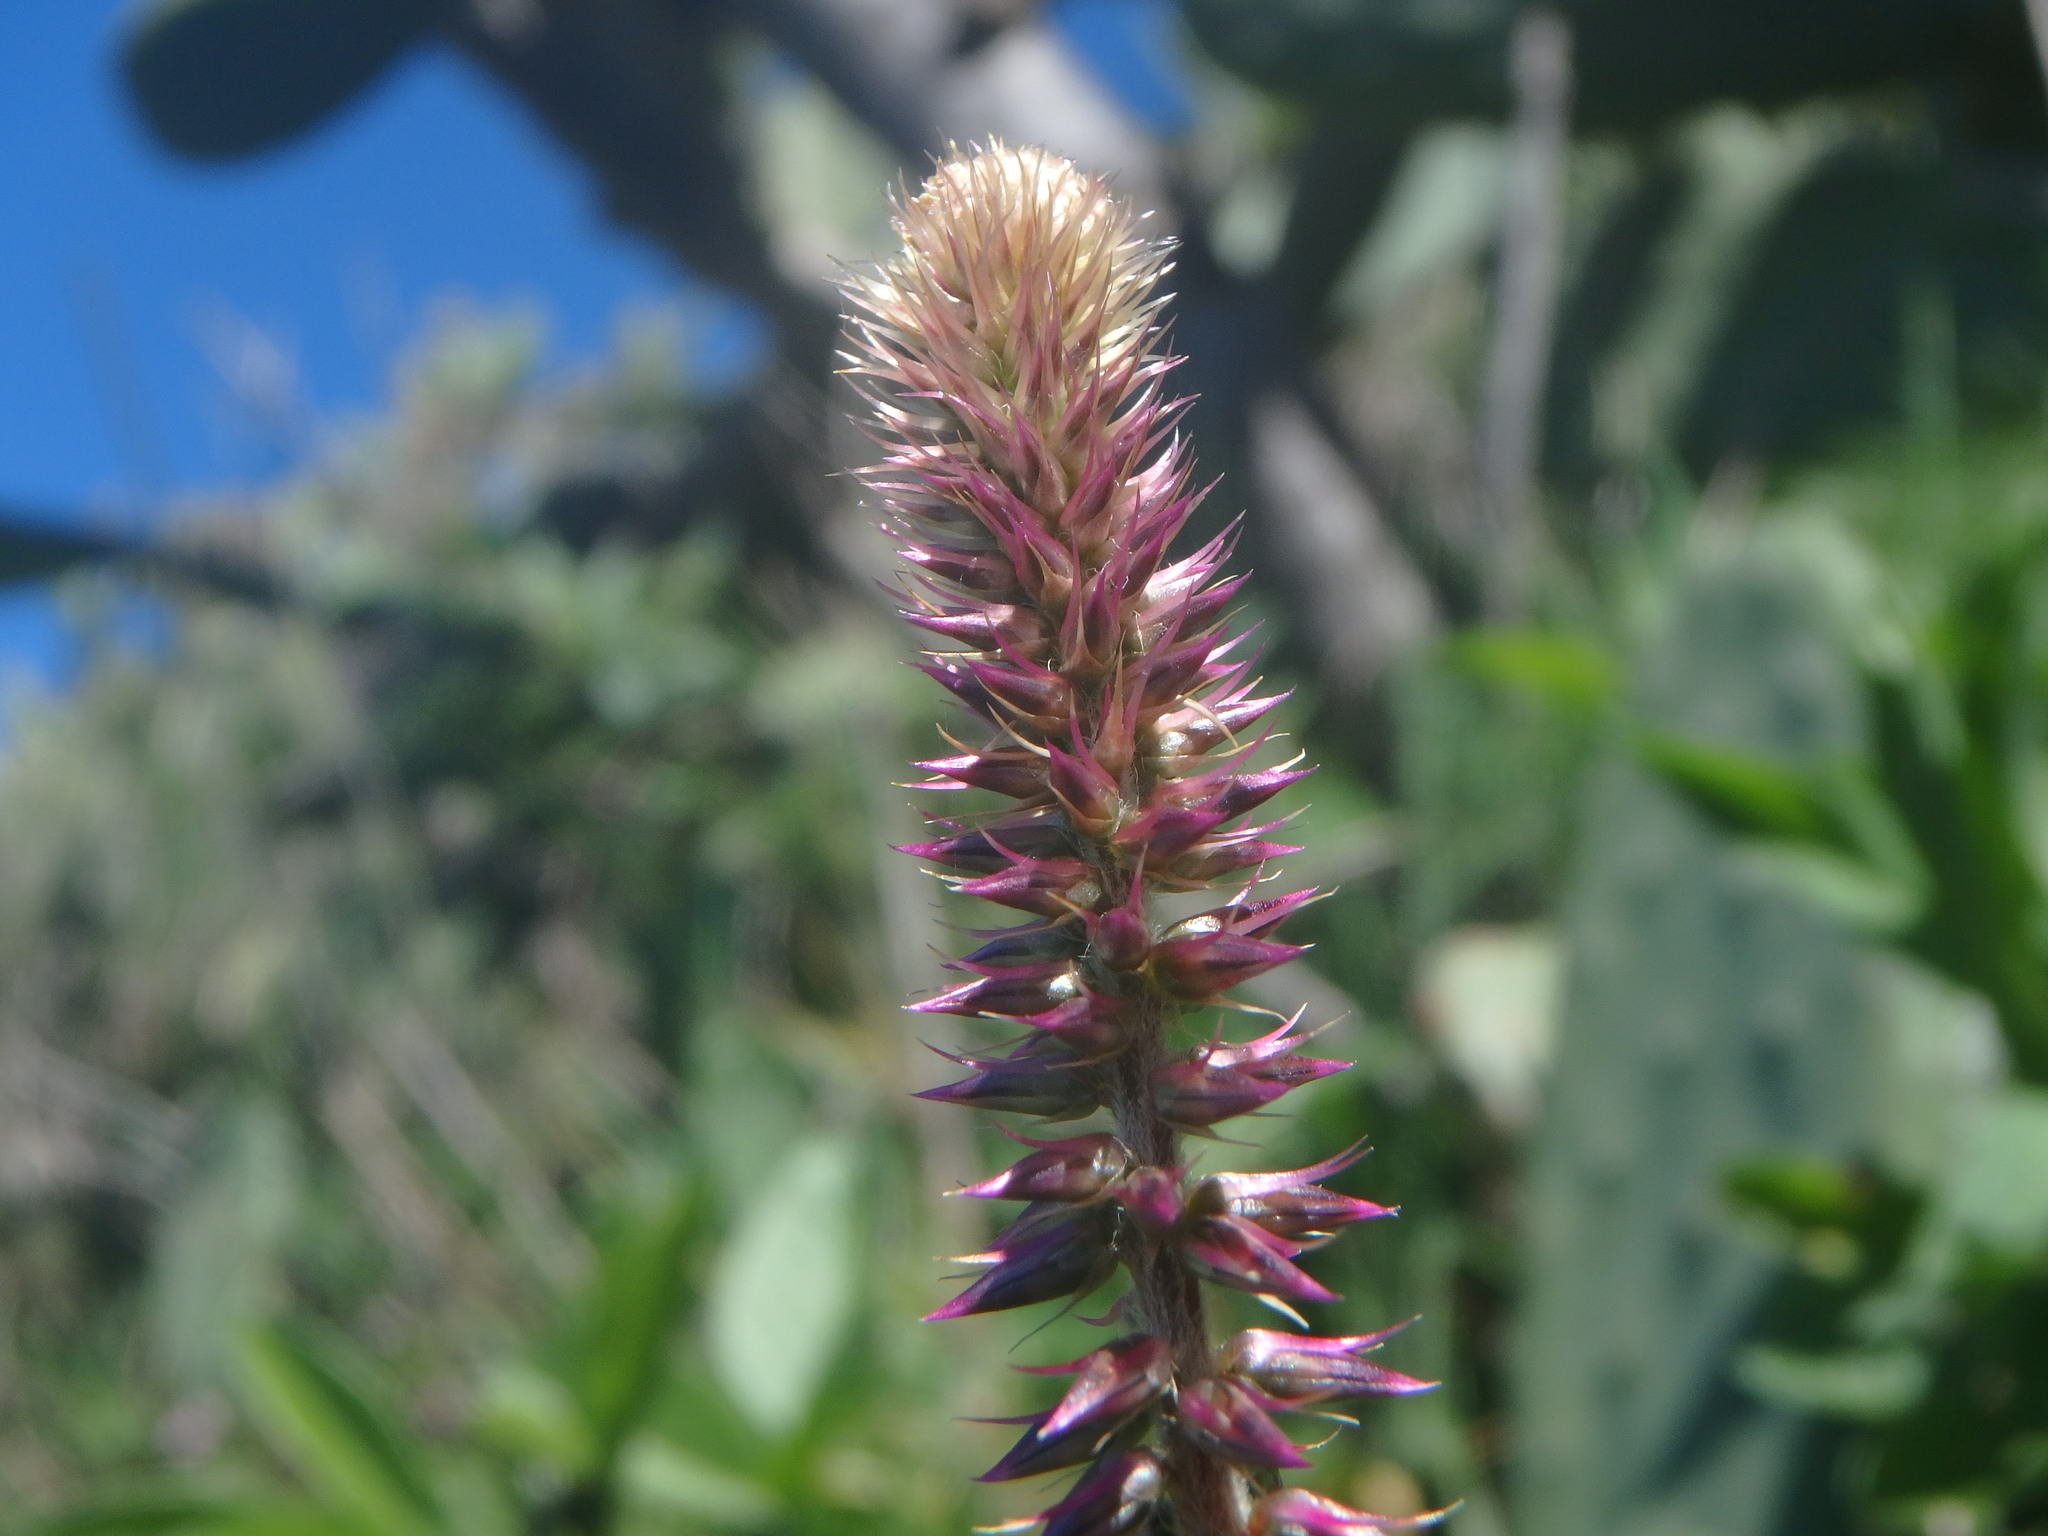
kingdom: Plantae
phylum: Tracheophyta
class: Magnoliopsida
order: Caryophyllales
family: Amaranthaceae
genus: Achyranthes
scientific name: Achyranthes aspera
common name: Devil's horsewhip
